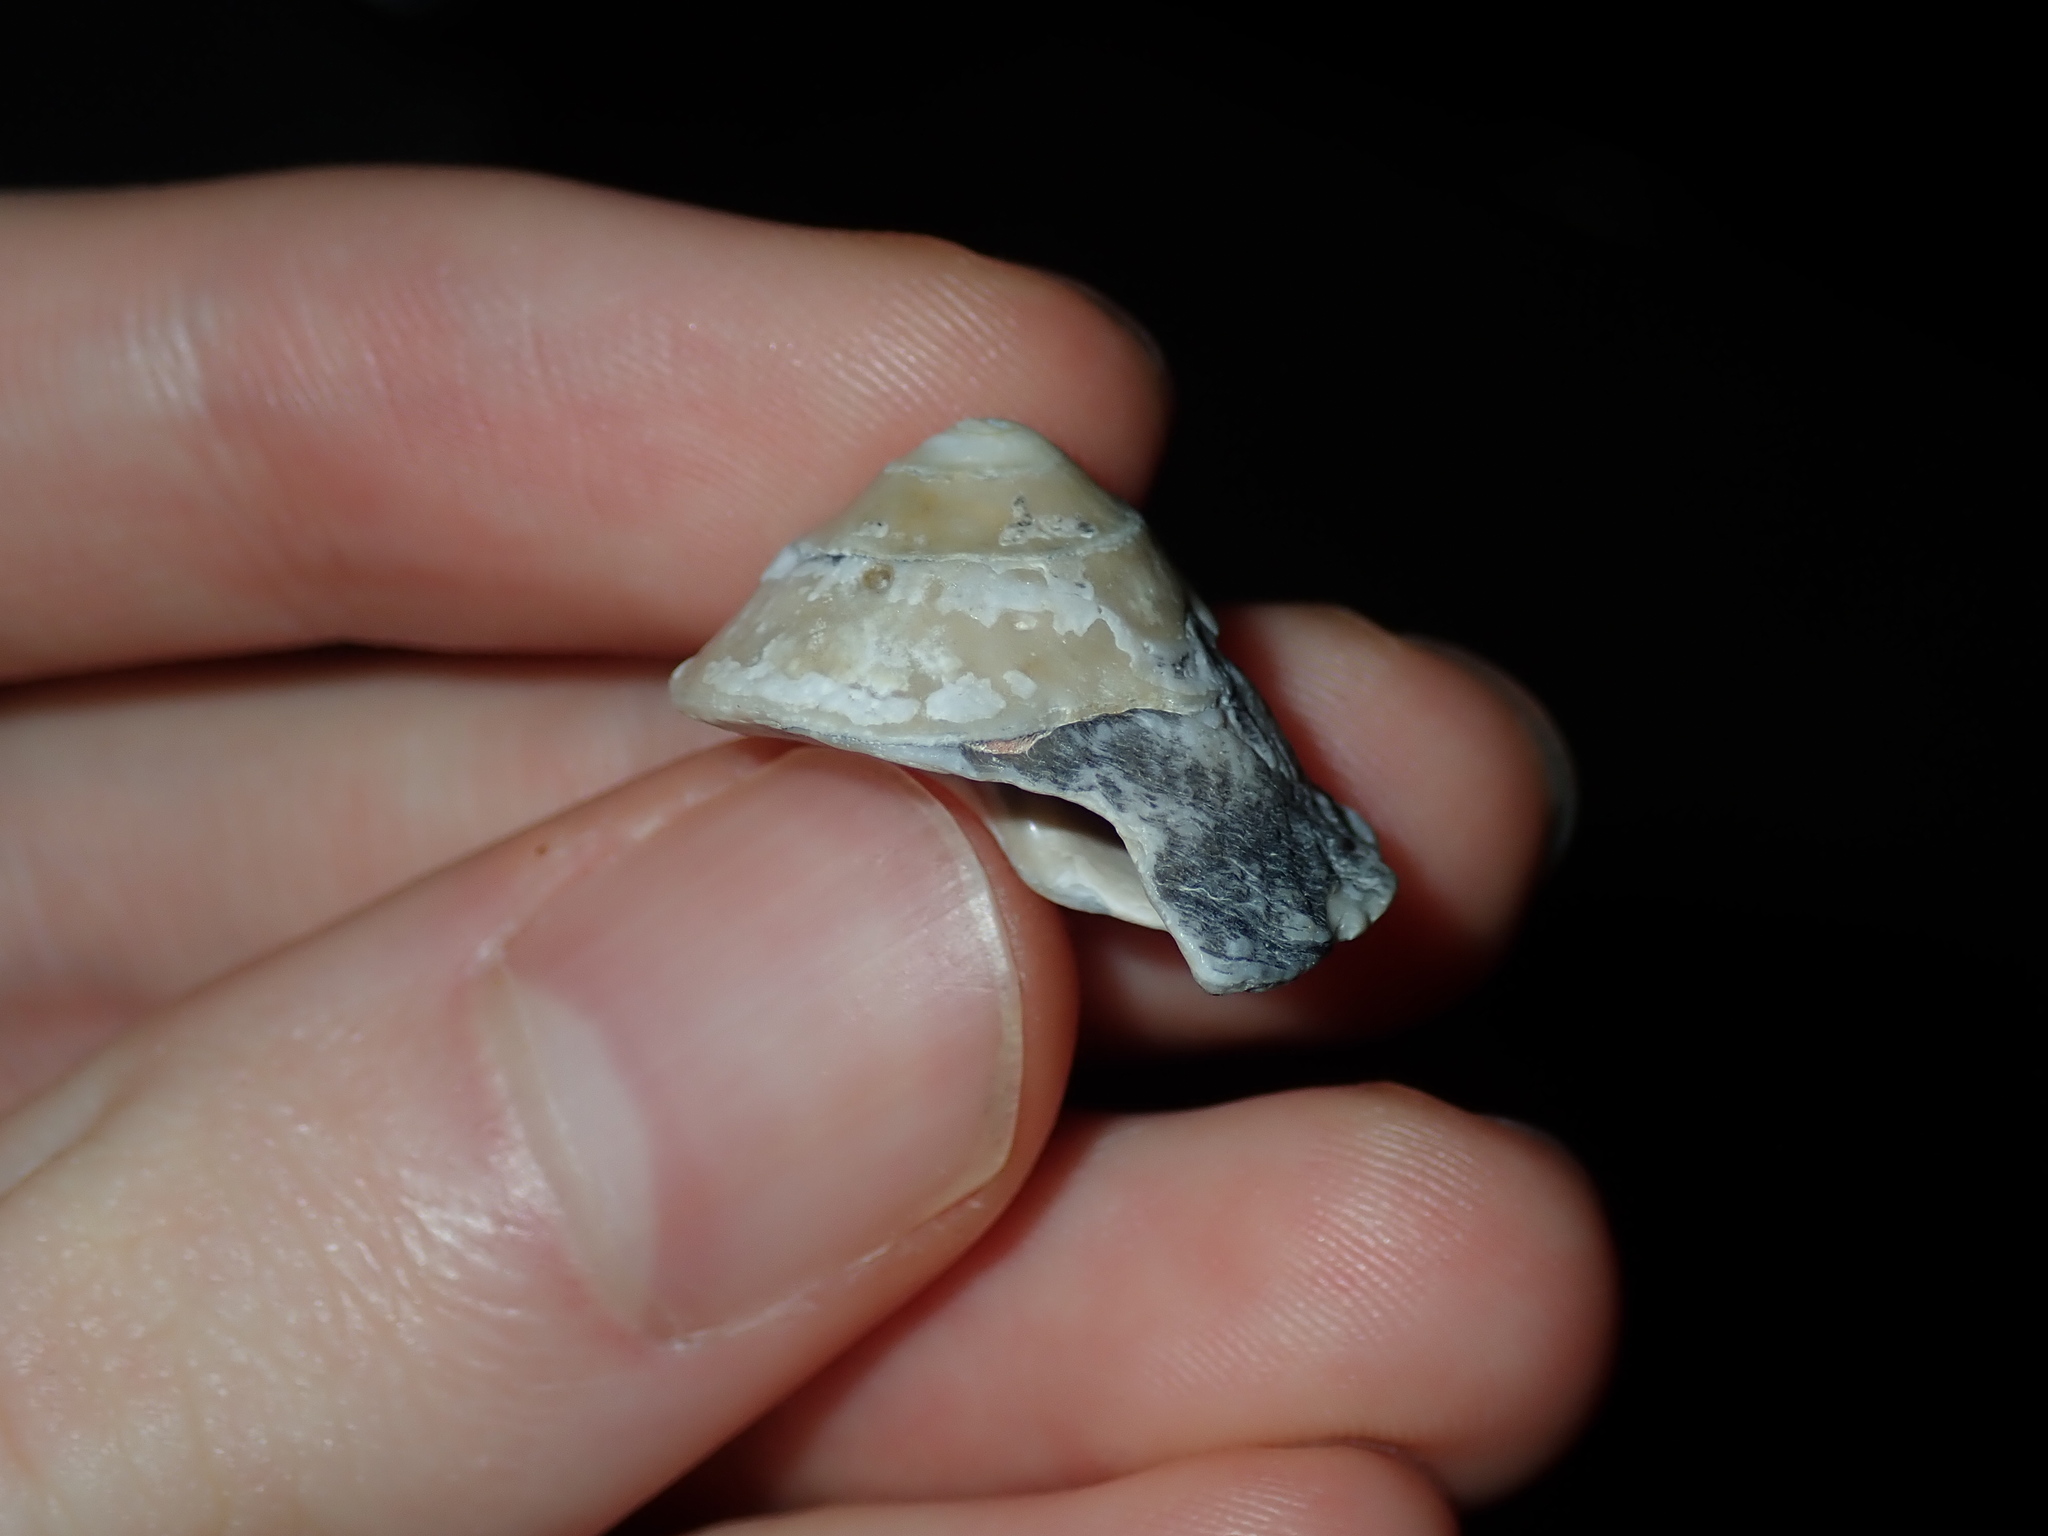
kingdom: Animalia
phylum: Mollusca
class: Gastropoda
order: Trochida
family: Turbinidae
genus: Bellastraea
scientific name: Bellastraea squamifera
